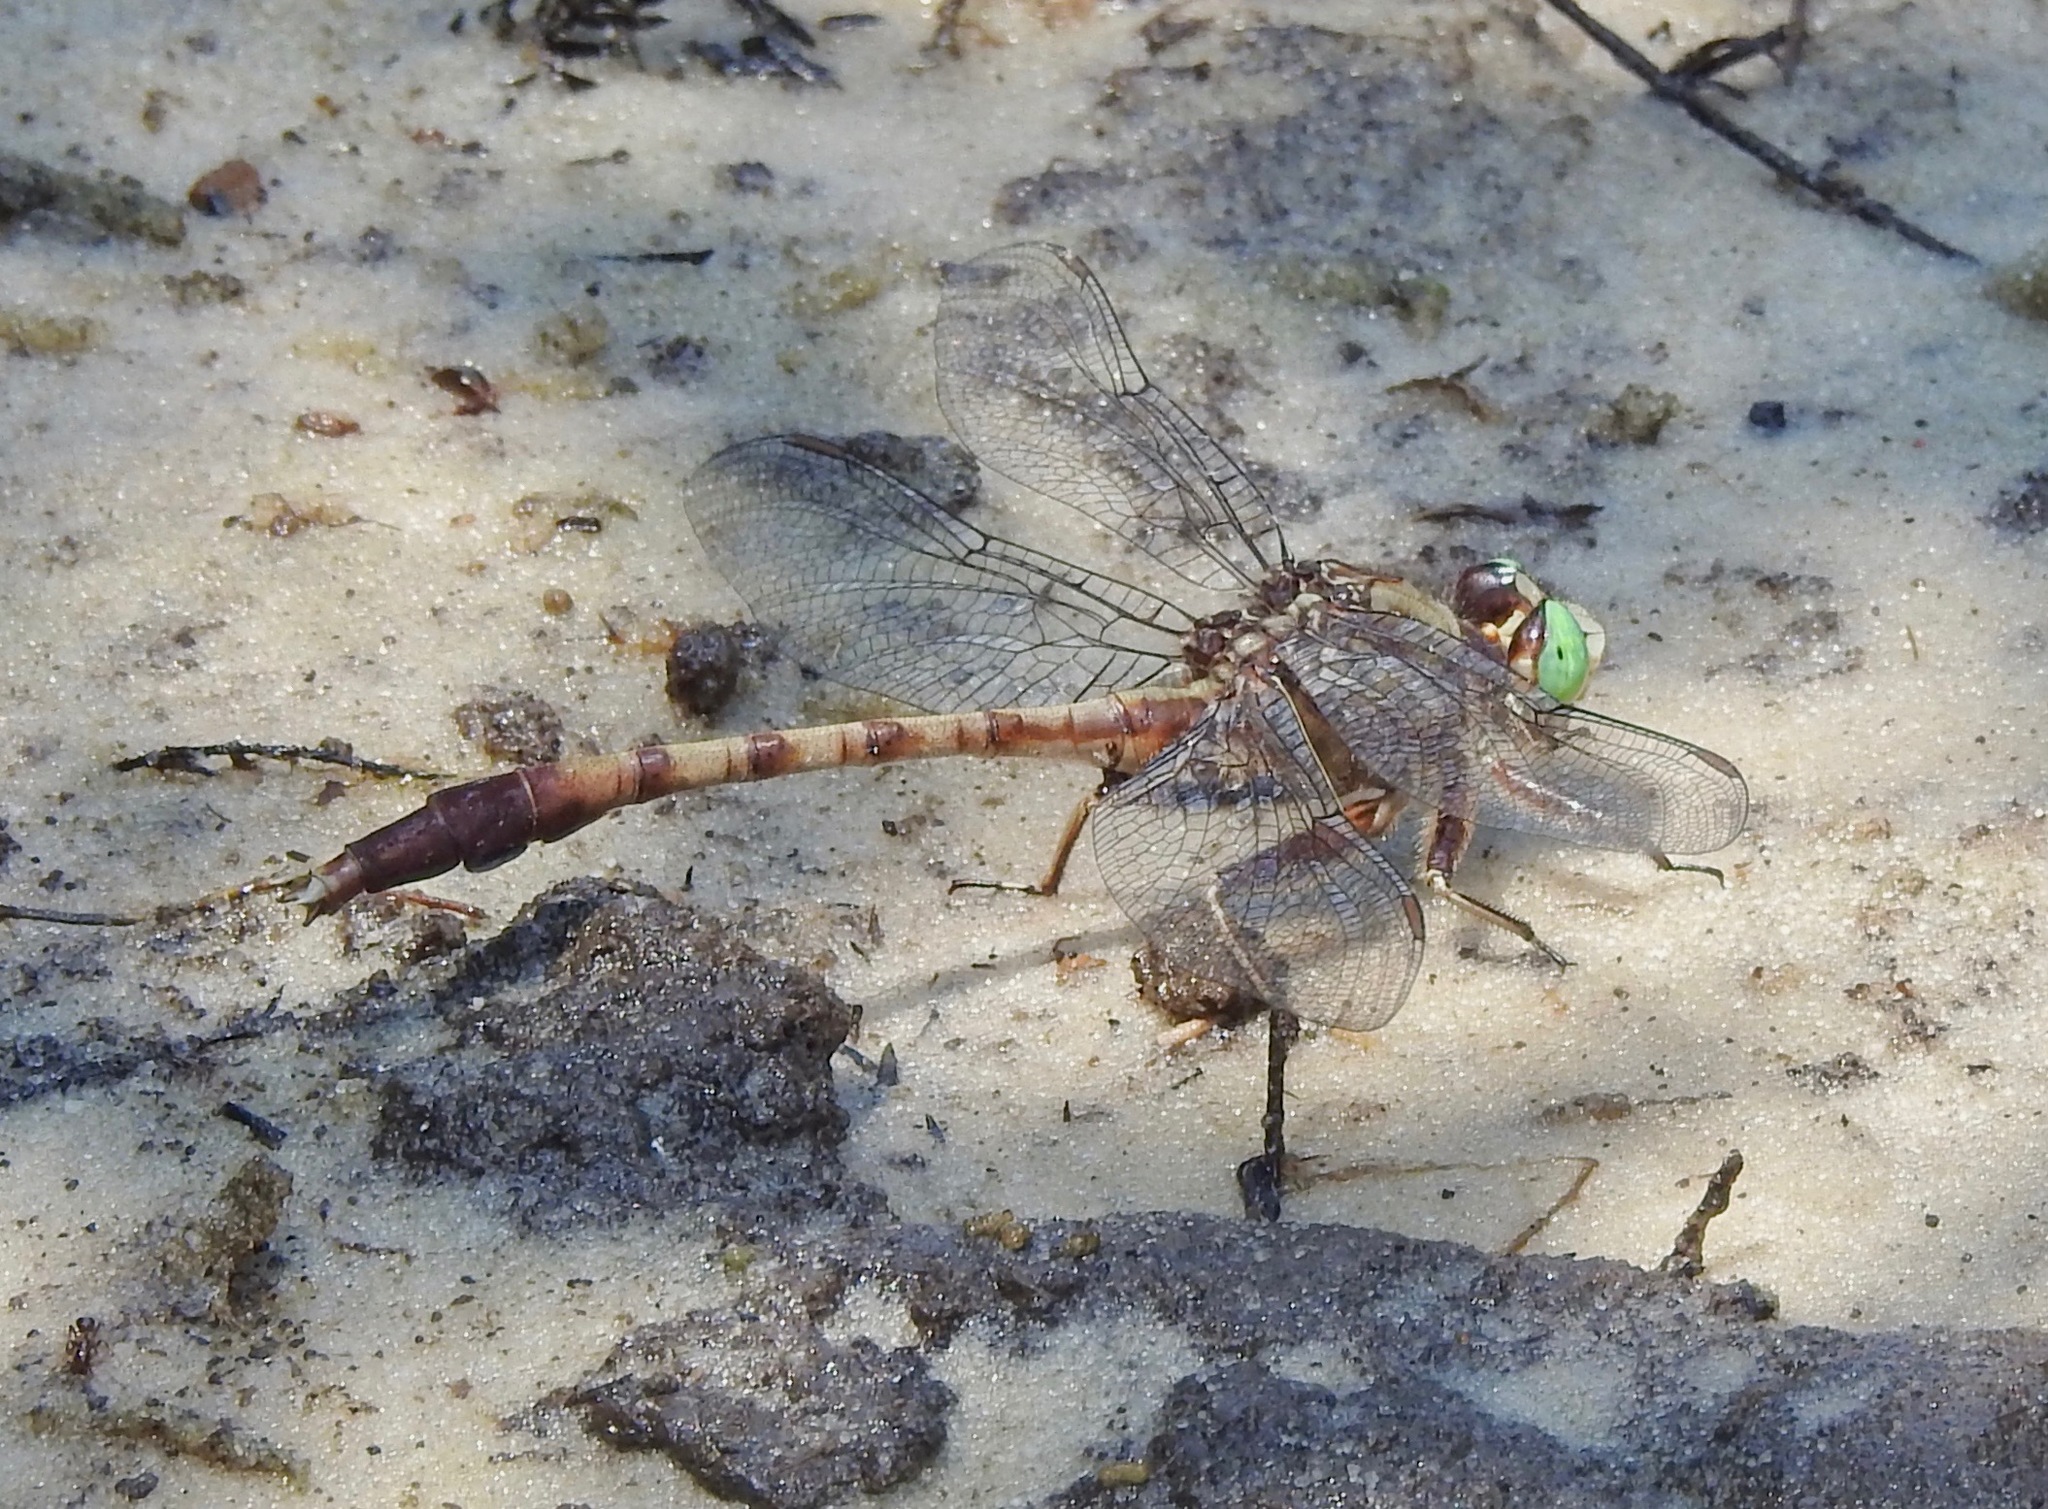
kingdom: Animalia
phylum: Arthropoda
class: Insecta
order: Odonata
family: Gomphidae
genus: Arigomphus
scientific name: Arigomphus pallidus
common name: Gray-green clubtail
